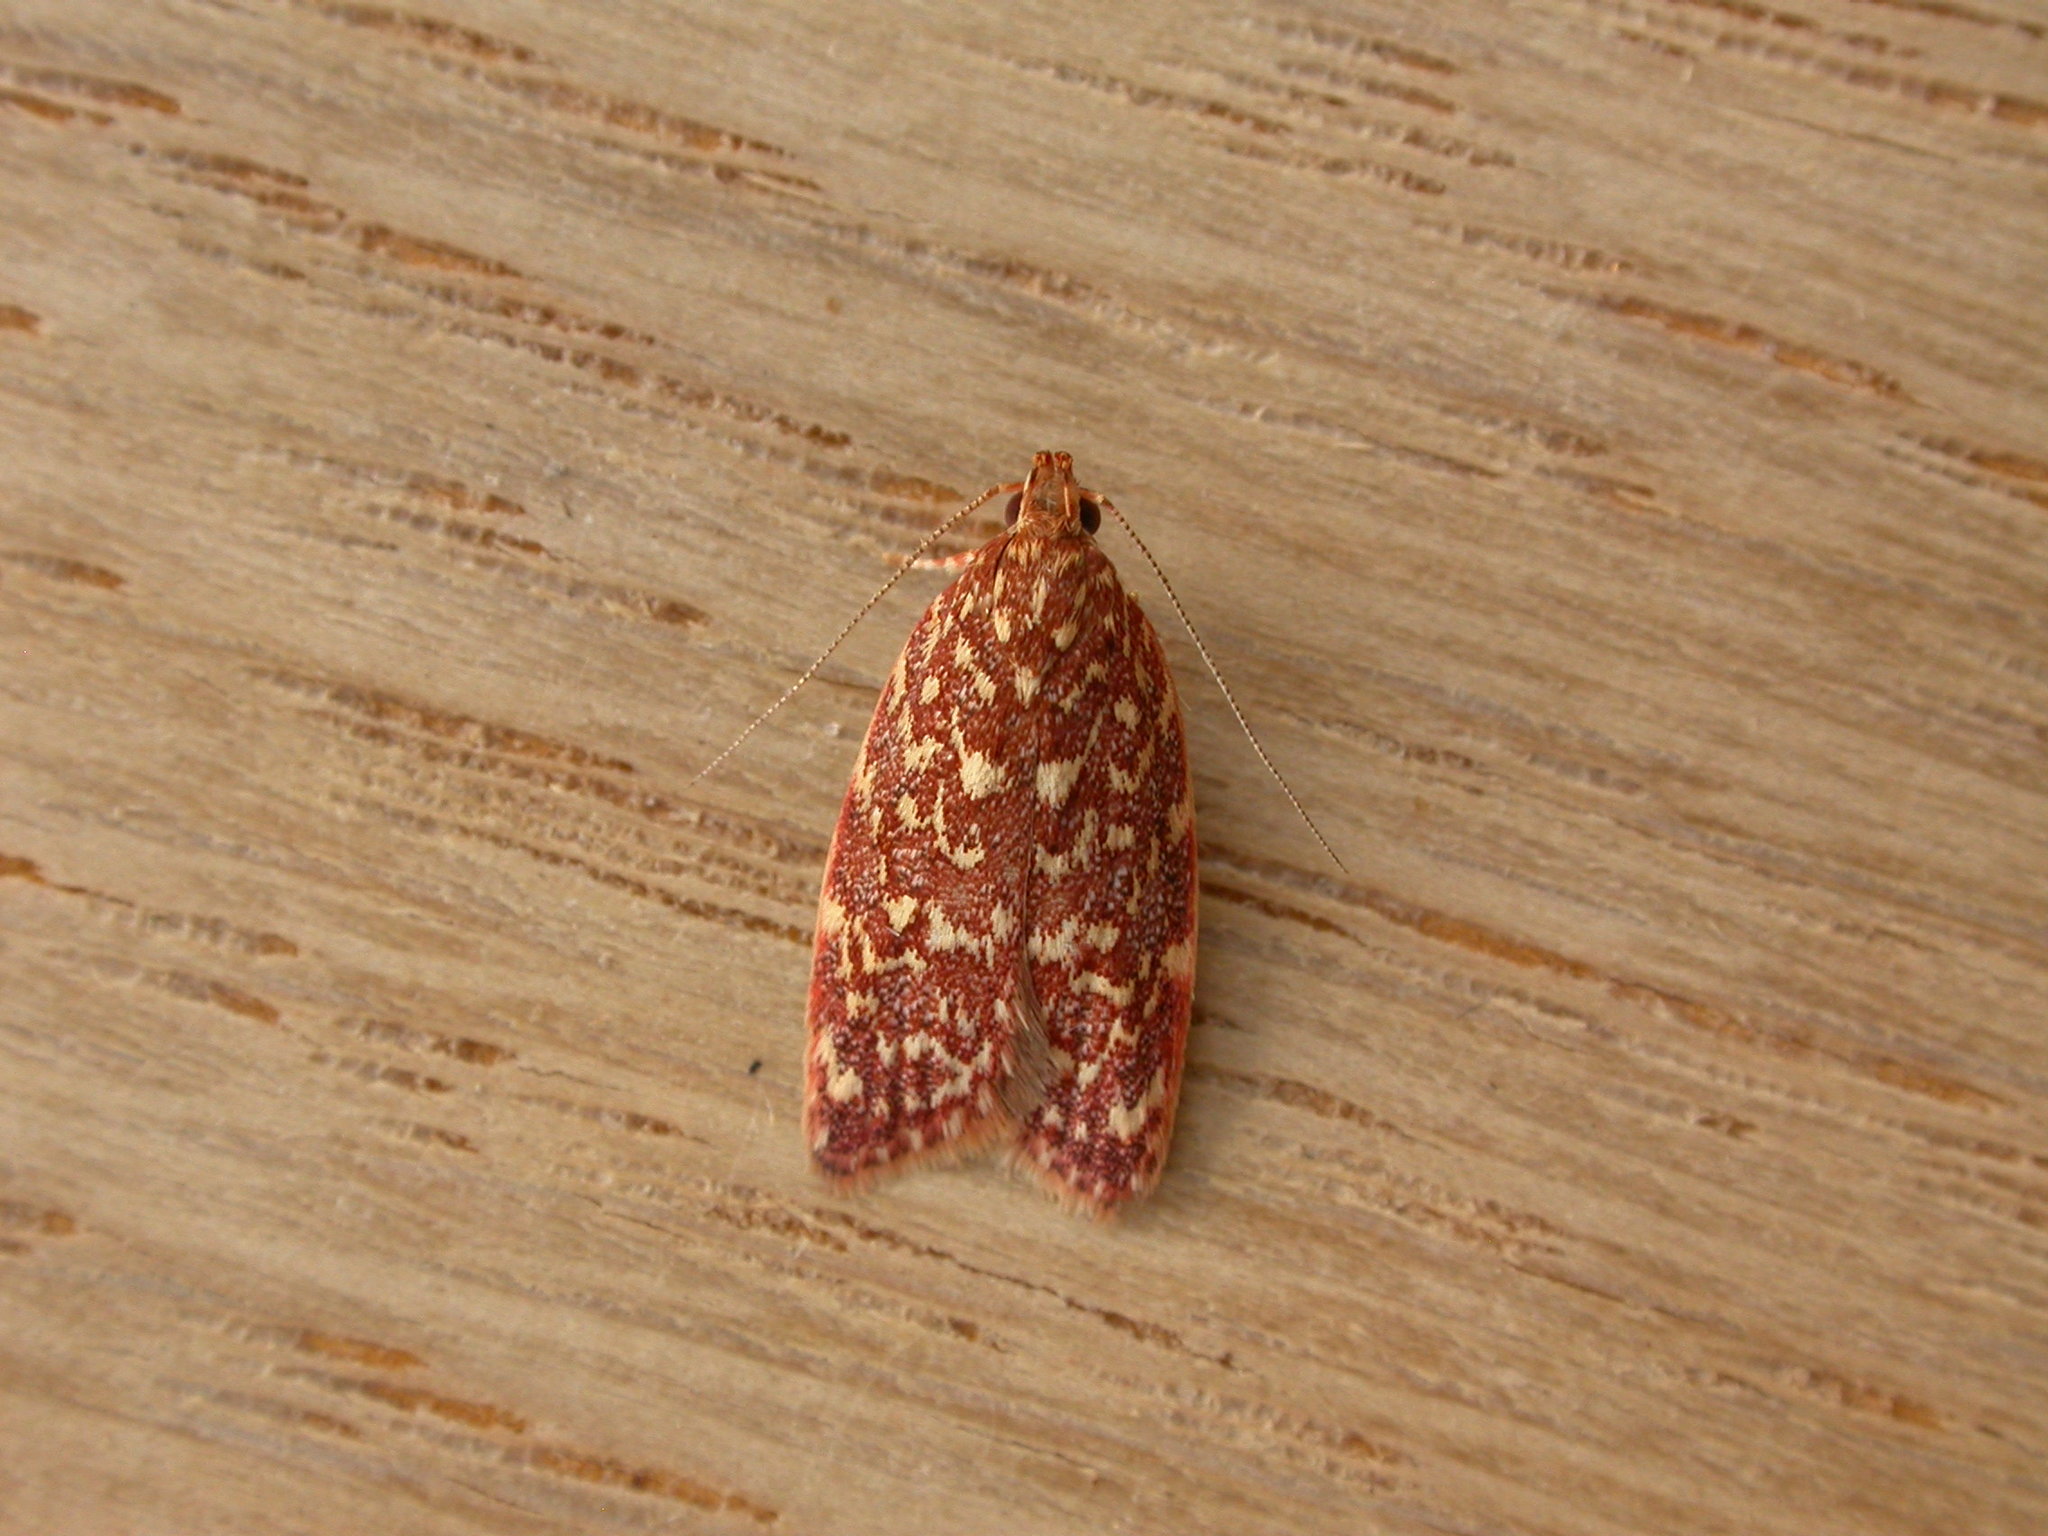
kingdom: Animalia
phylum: Arthropoda
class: Insecta
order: Lepidoptera
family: Oecophoridae
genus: Syringoseca
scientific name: Syringoseca rhodoxantha
